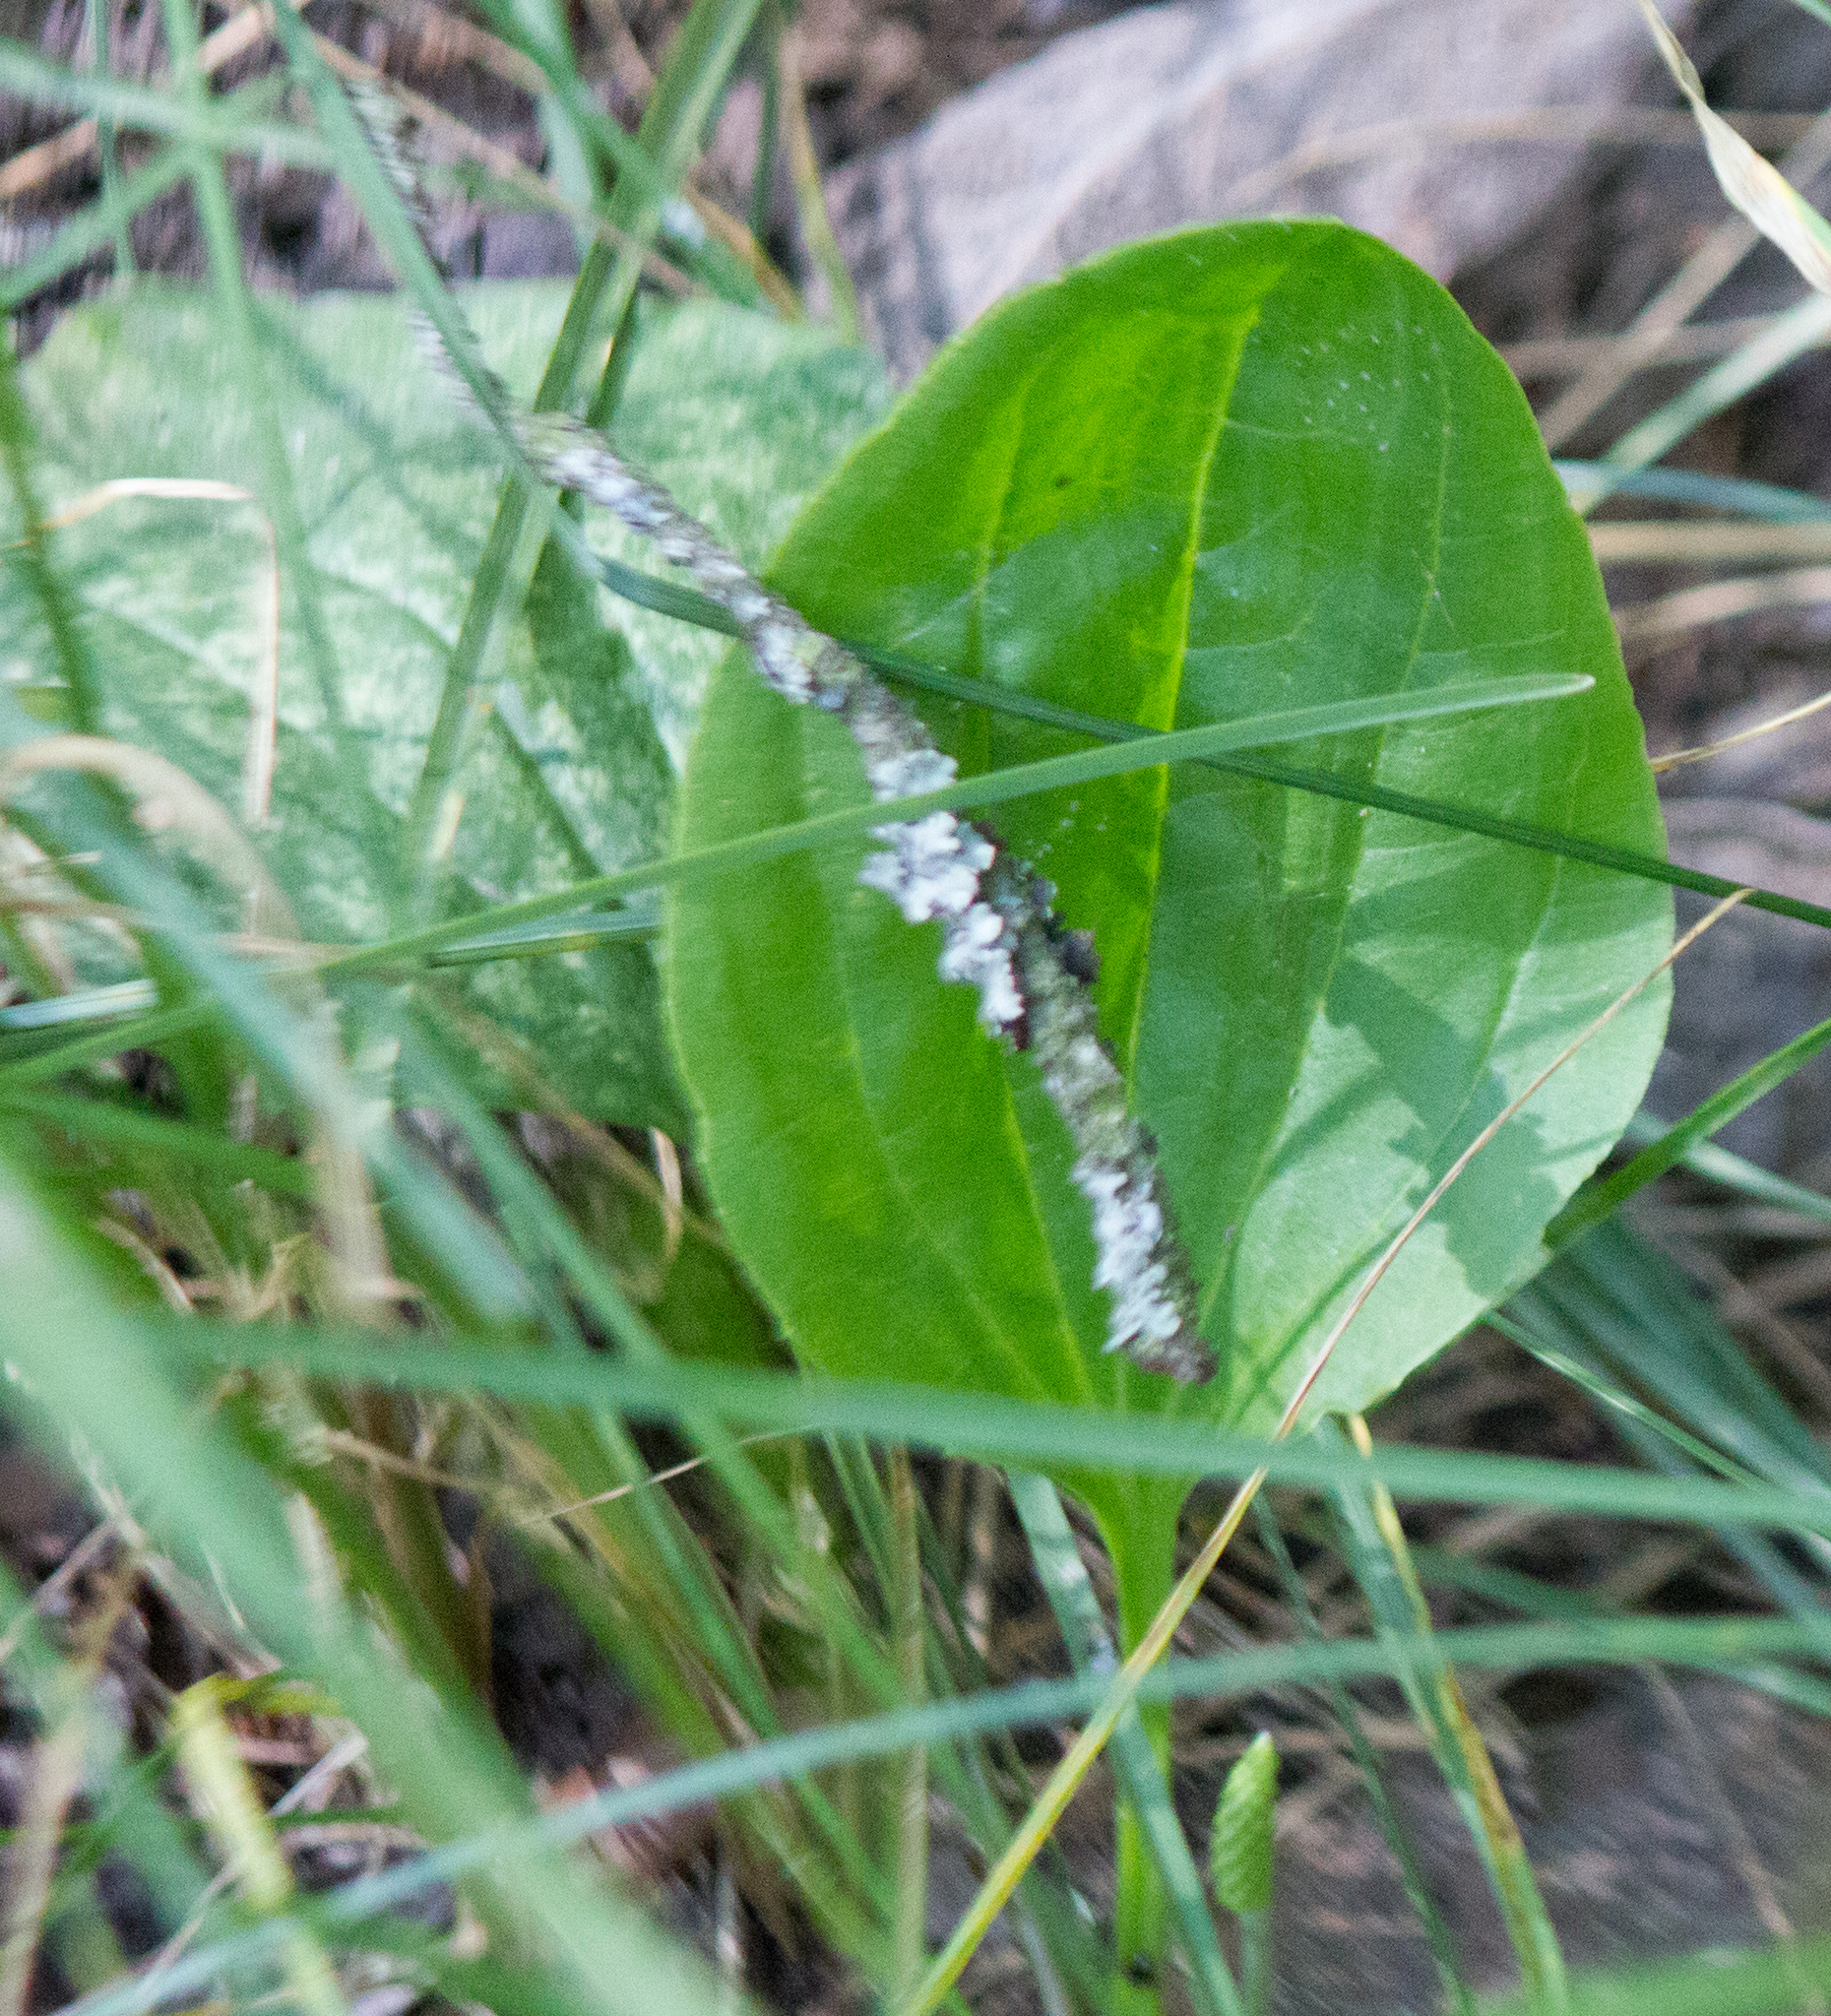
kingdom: Plantae
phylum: Tracheophyta
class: Magnoliopsida
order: Lamiales
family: Plantaginaceae
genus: Plantago
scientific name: Plantago major
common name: Common plantain
